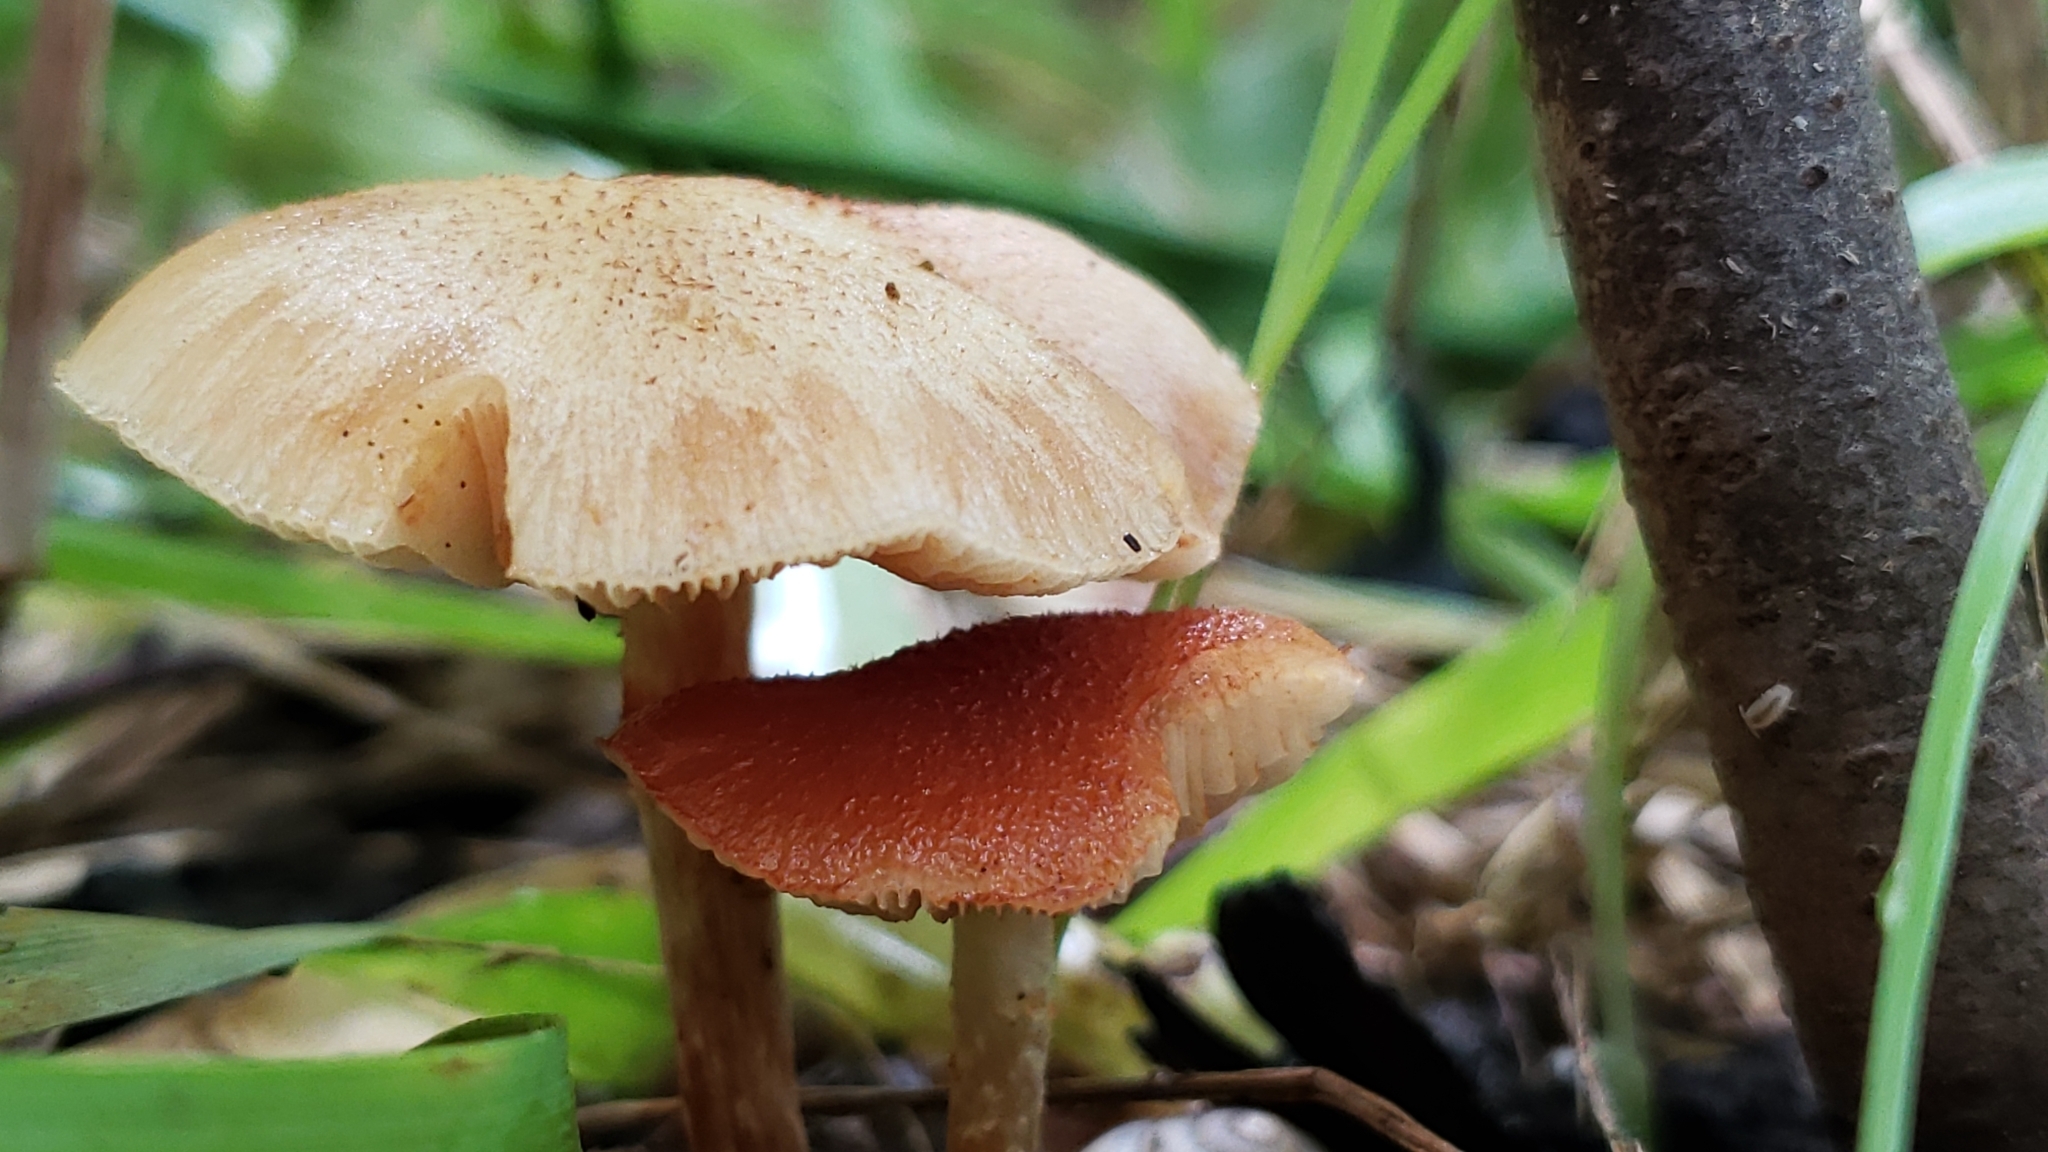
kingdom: Fungi
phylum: Basidiomycota
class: Agaricomycetes
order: Agaricales
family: Physalacriaceae
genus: Desarmillaria
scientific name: Desarmillaria caespitosa
